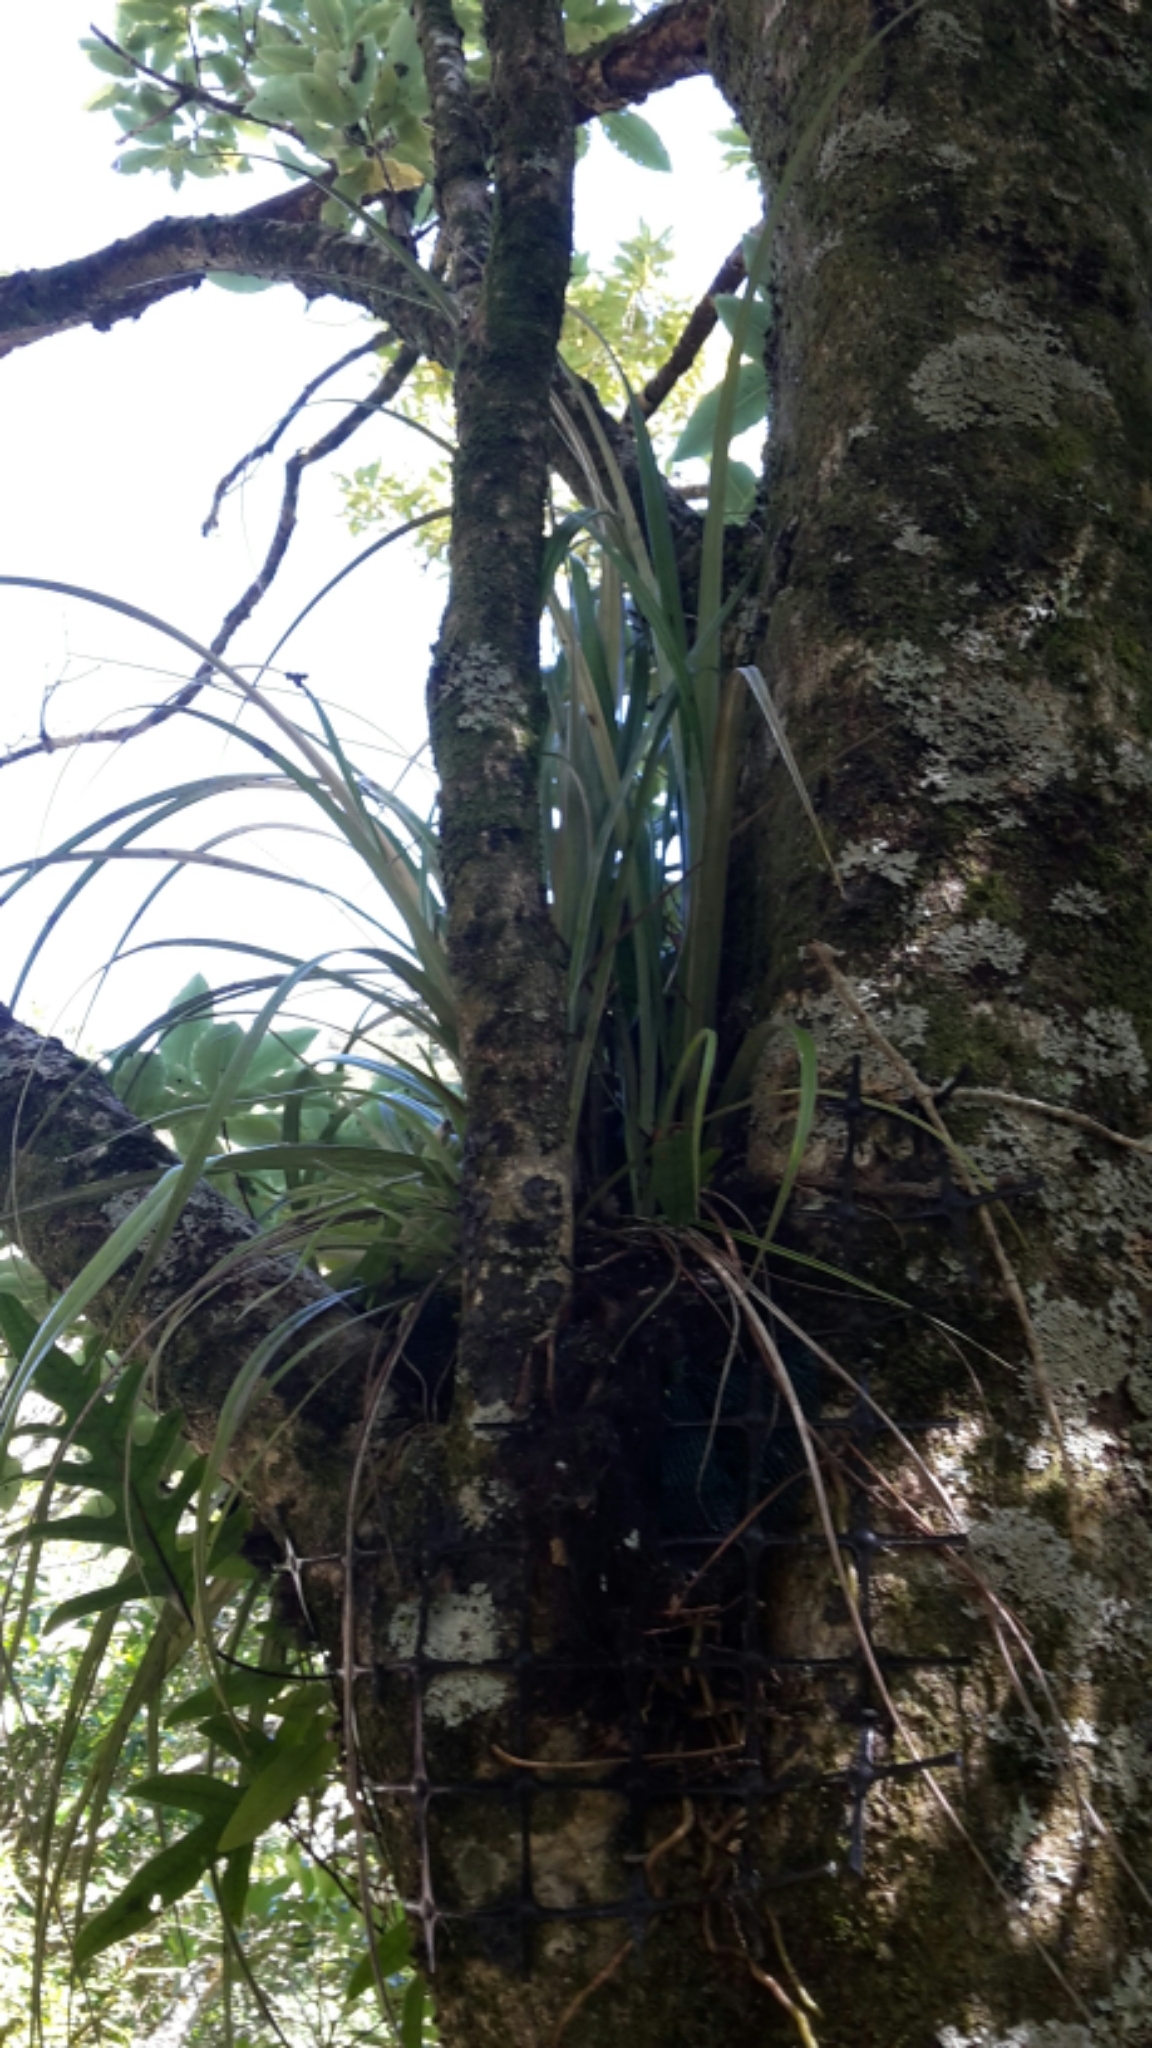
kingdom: Plantae
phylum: Tracheophyta
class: Liliopsida
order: Asparagales
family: Asteliaceae
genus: Astelia
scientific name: Astelia solandri
